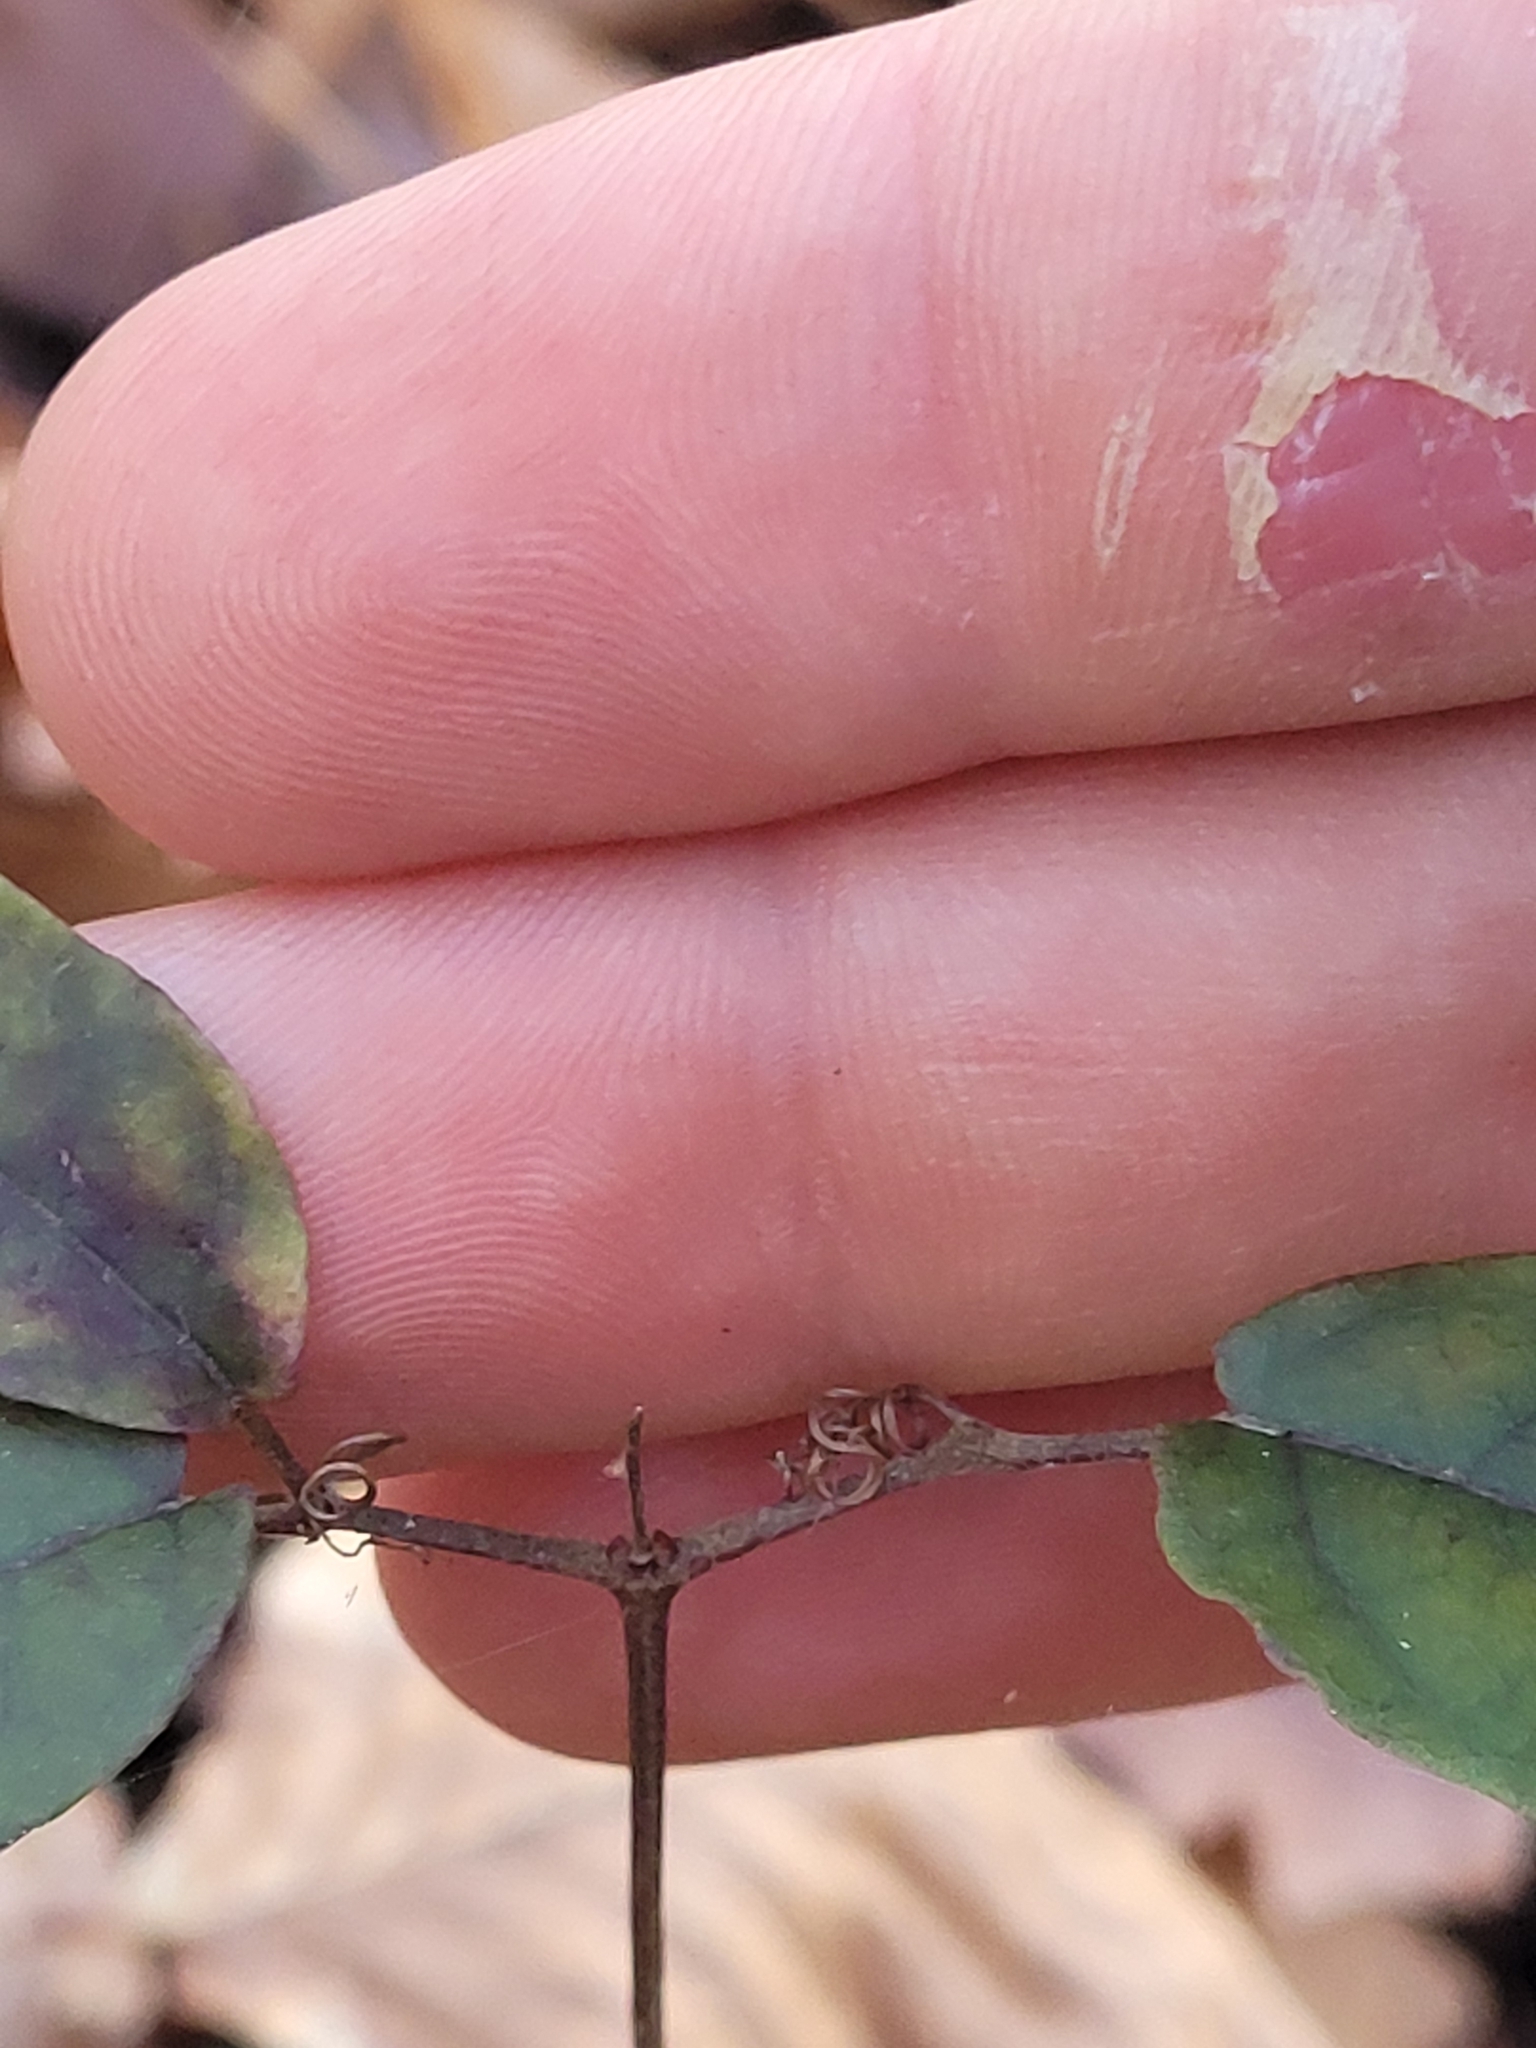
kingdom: Plantae
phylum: Tracheophyta
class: Magnoliopsida
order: Lamiales
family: Bignoniaceae
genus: Bignonia
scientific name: Bignonia capreolata
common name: Crossvine
